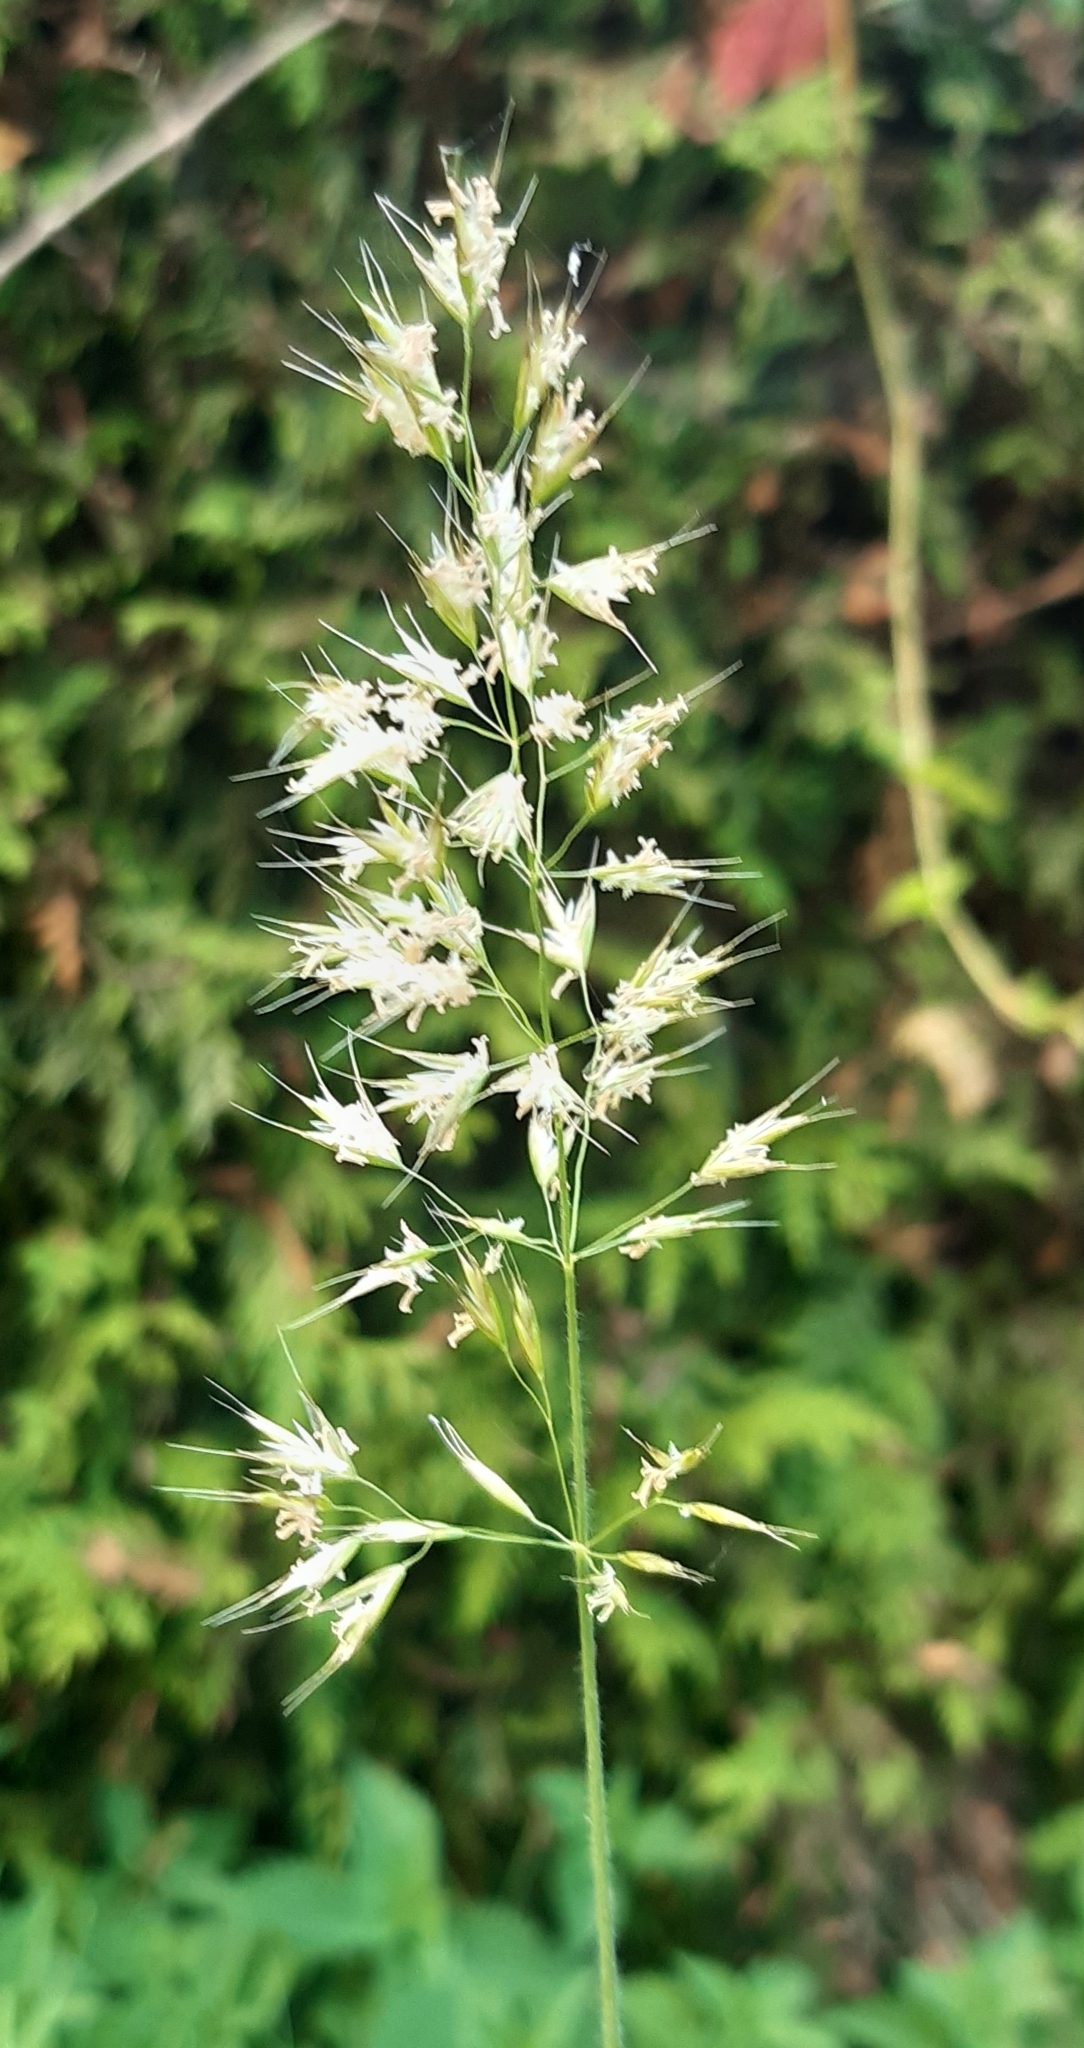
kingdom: Plantae
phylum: Tracheophyta
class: Liliopsida
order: Poales
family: Poaceae
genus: Trisetum
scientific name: Trisetum flavescens
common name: Yellow oat-grass
